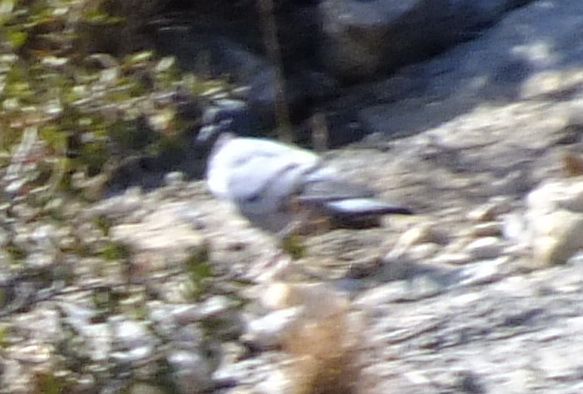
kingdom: Animalia
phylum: Chordata
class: Aves
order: Columbiformes
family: Columbidae
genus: Columba
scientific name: Columba livia
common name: Rock pigeon
